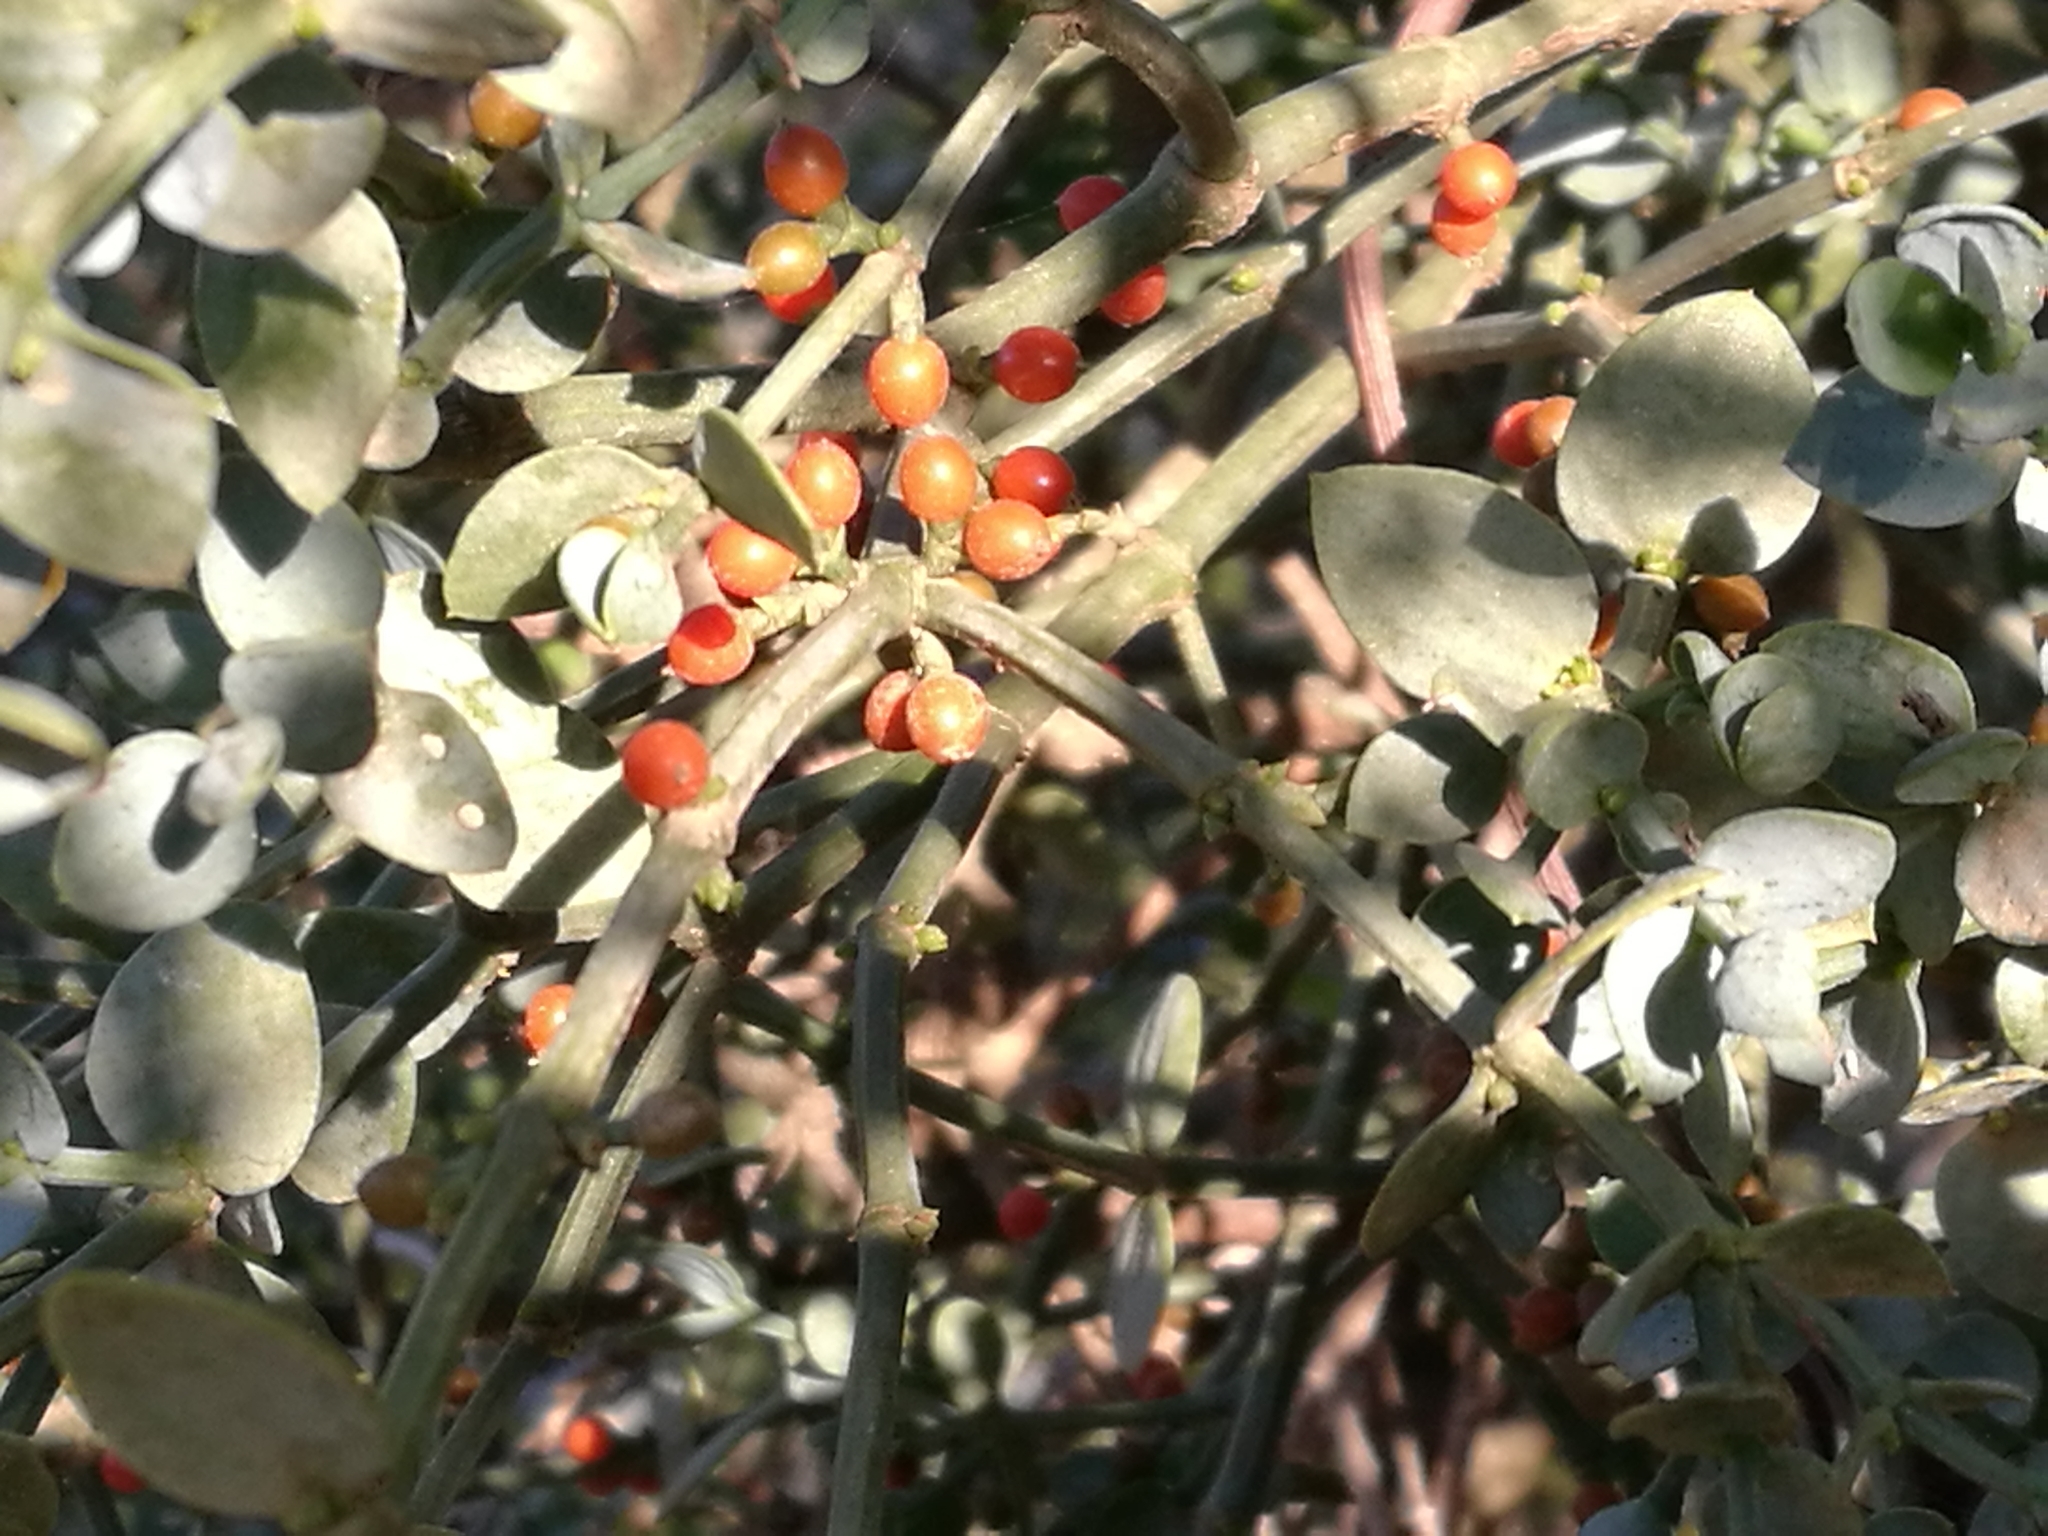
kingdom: Plantae
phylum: Tracheophyta
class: Magnoliopsida
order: Santalales
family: Viscaceae
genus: Viscum
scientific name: Viscum rotundifolium
